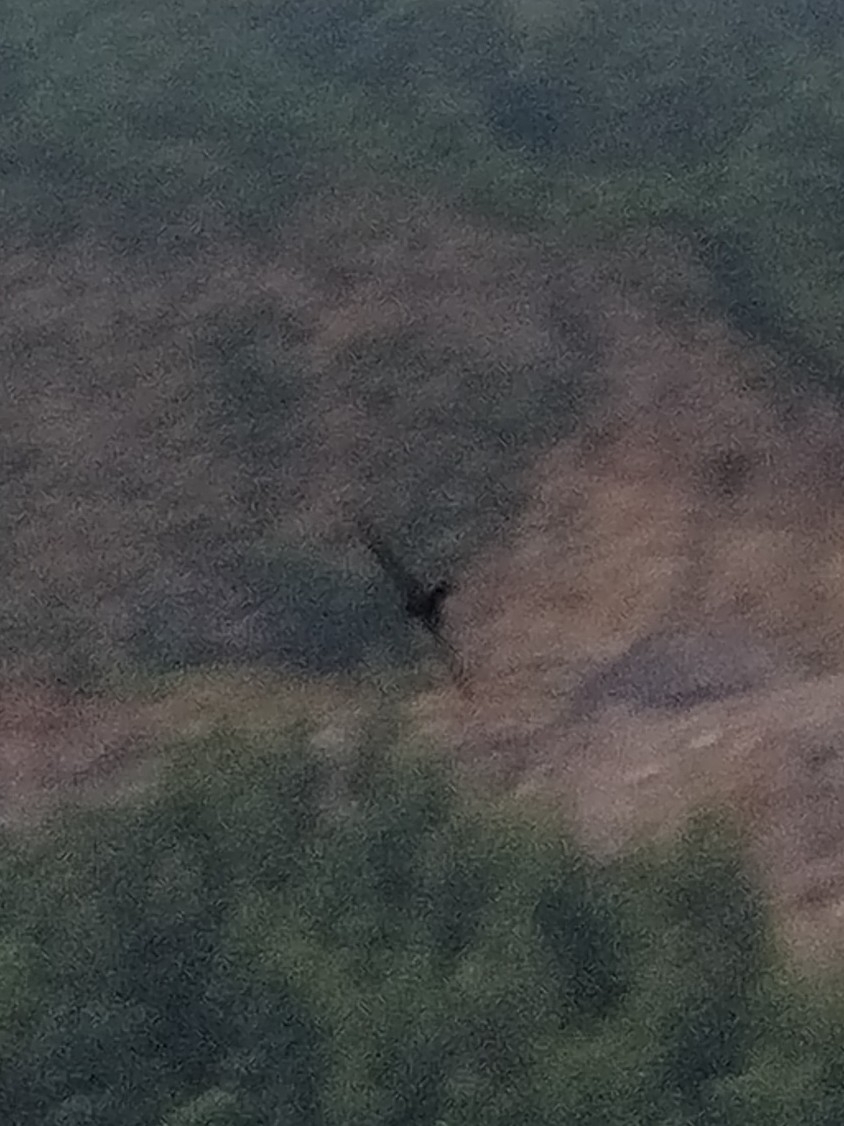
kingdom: Animalia
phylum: Chordata
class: Aves
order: Apodiformes
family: Apodidae
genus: Apus
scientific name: Apus unicolor
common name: Plain swift
